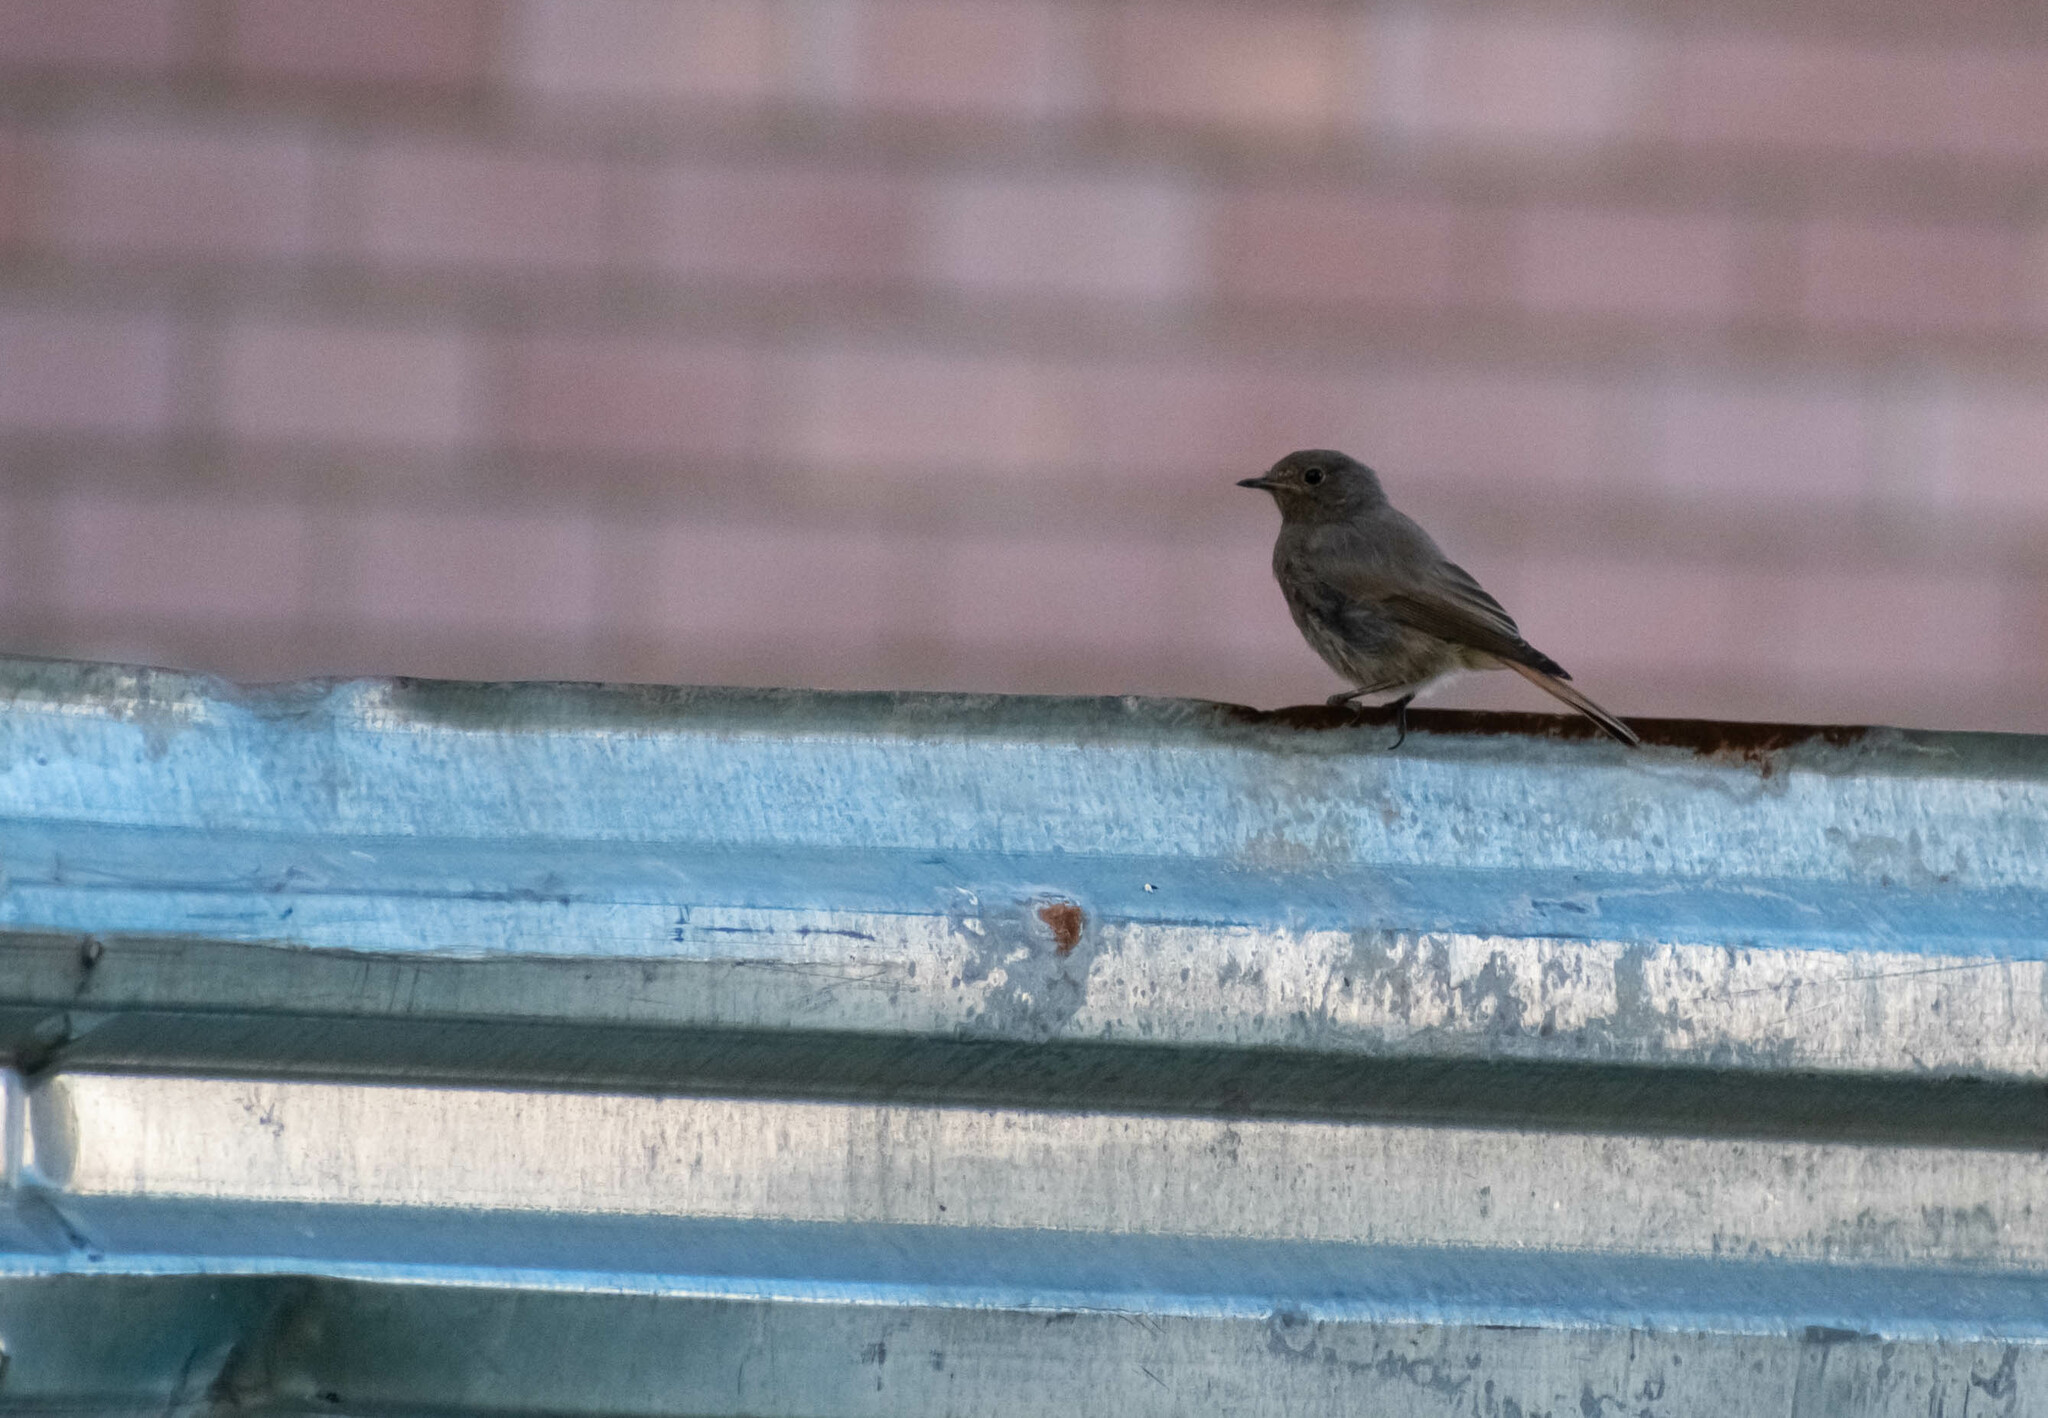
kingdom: Animalia
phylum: Chordata
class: Aves
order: Passeriformes
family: Muscicapidae
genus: Phoenicurus
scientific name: Phoenicurus ochruros
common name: Black redstart
